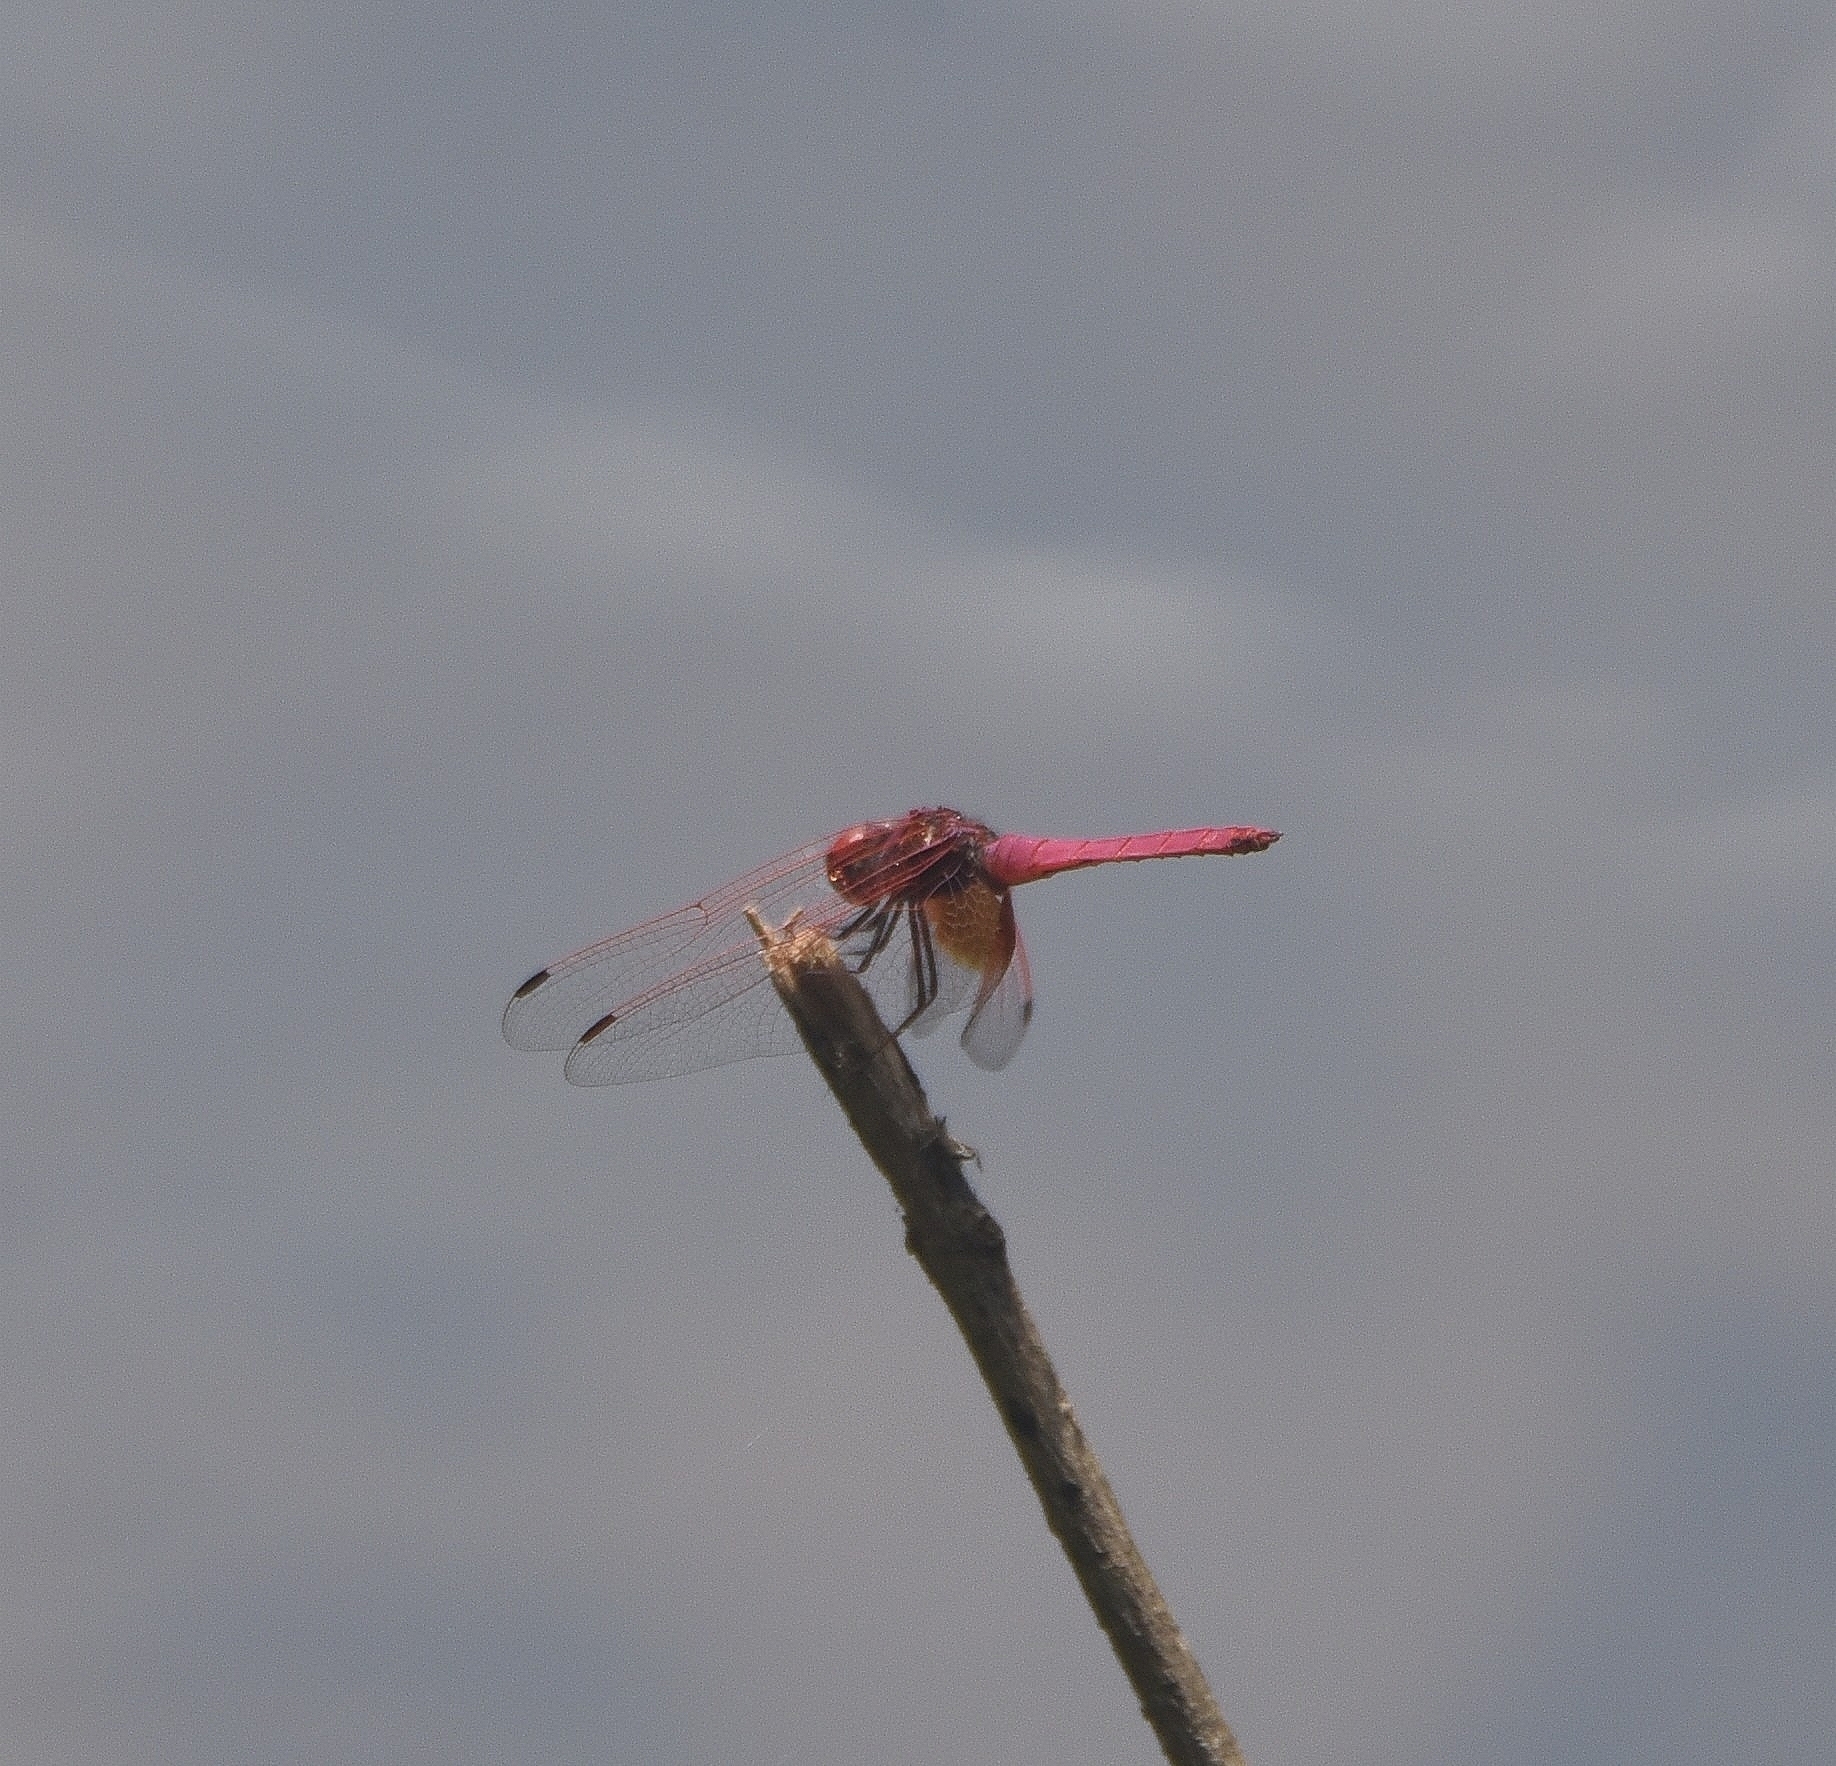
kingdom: Animalia
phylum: Arthropoda
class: Insecta
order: Odonata
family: Libellulidae
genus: Trithemis
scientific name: Trithemis aurora
